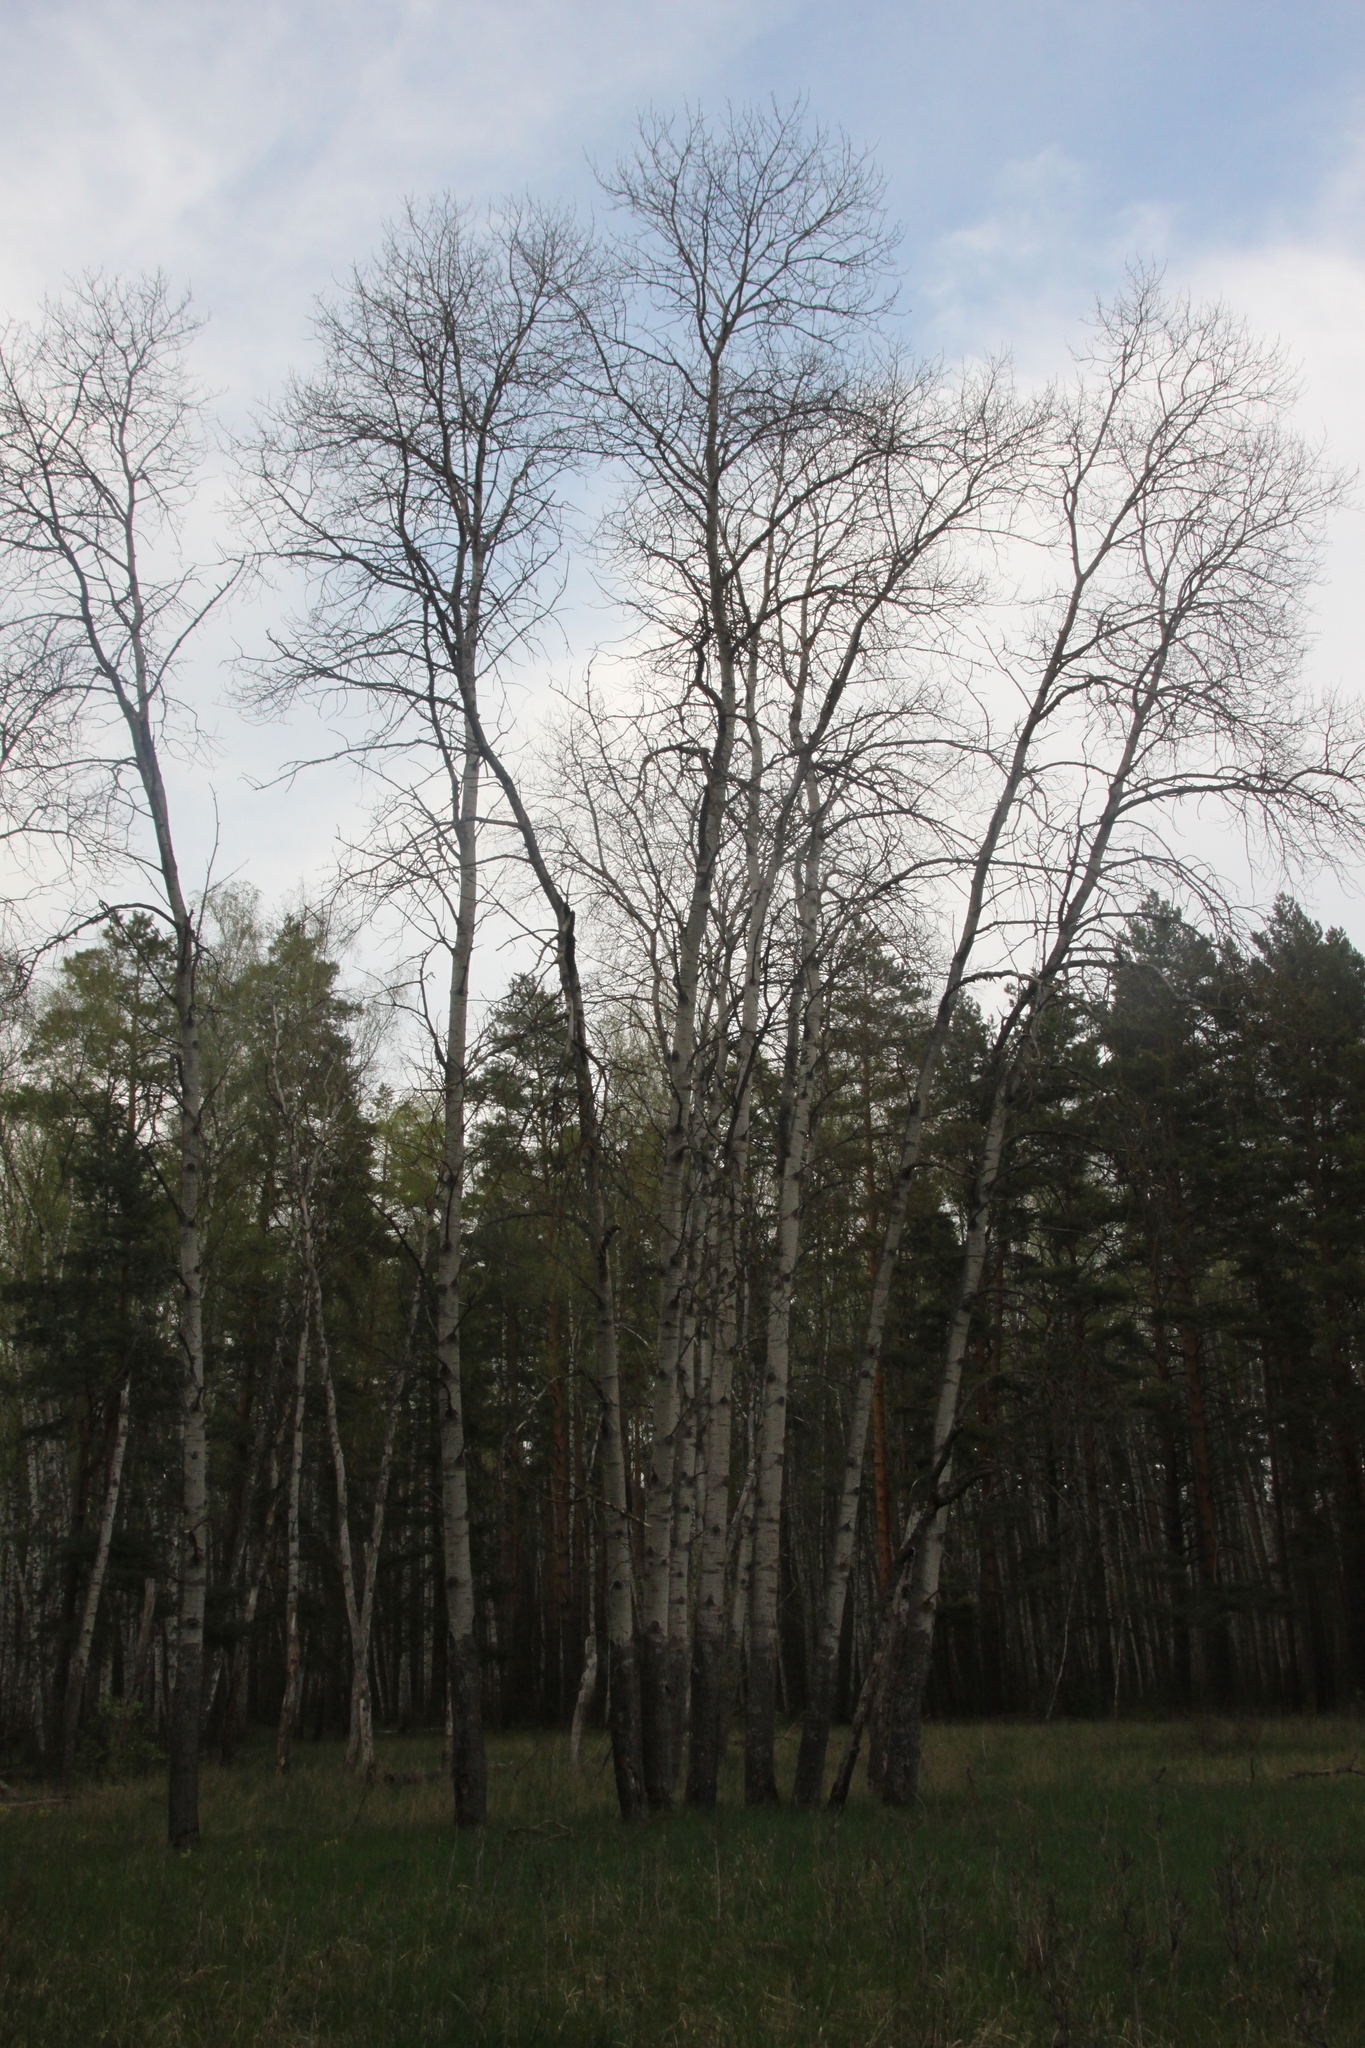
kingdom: Plantae
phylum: Tracheophyta
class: Magnoliopsida
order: Malpighiales
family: Salicaceae
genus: Populus
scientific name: Populus tremula
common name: European aspen
